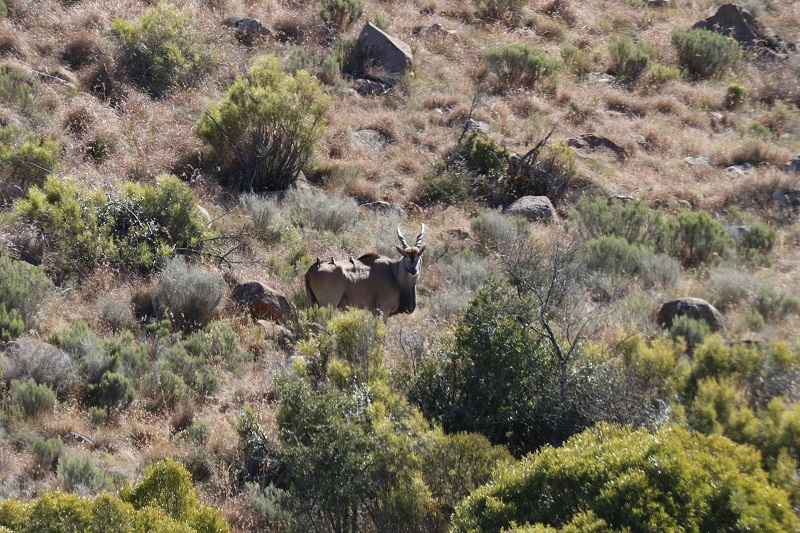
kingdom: Animalia
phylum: Chordata
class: Aves
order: Passeriformes
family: Buphagidae
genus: Buphagus
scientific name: Buphagus erythrorhynchus
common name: Red-billed oxpecker
